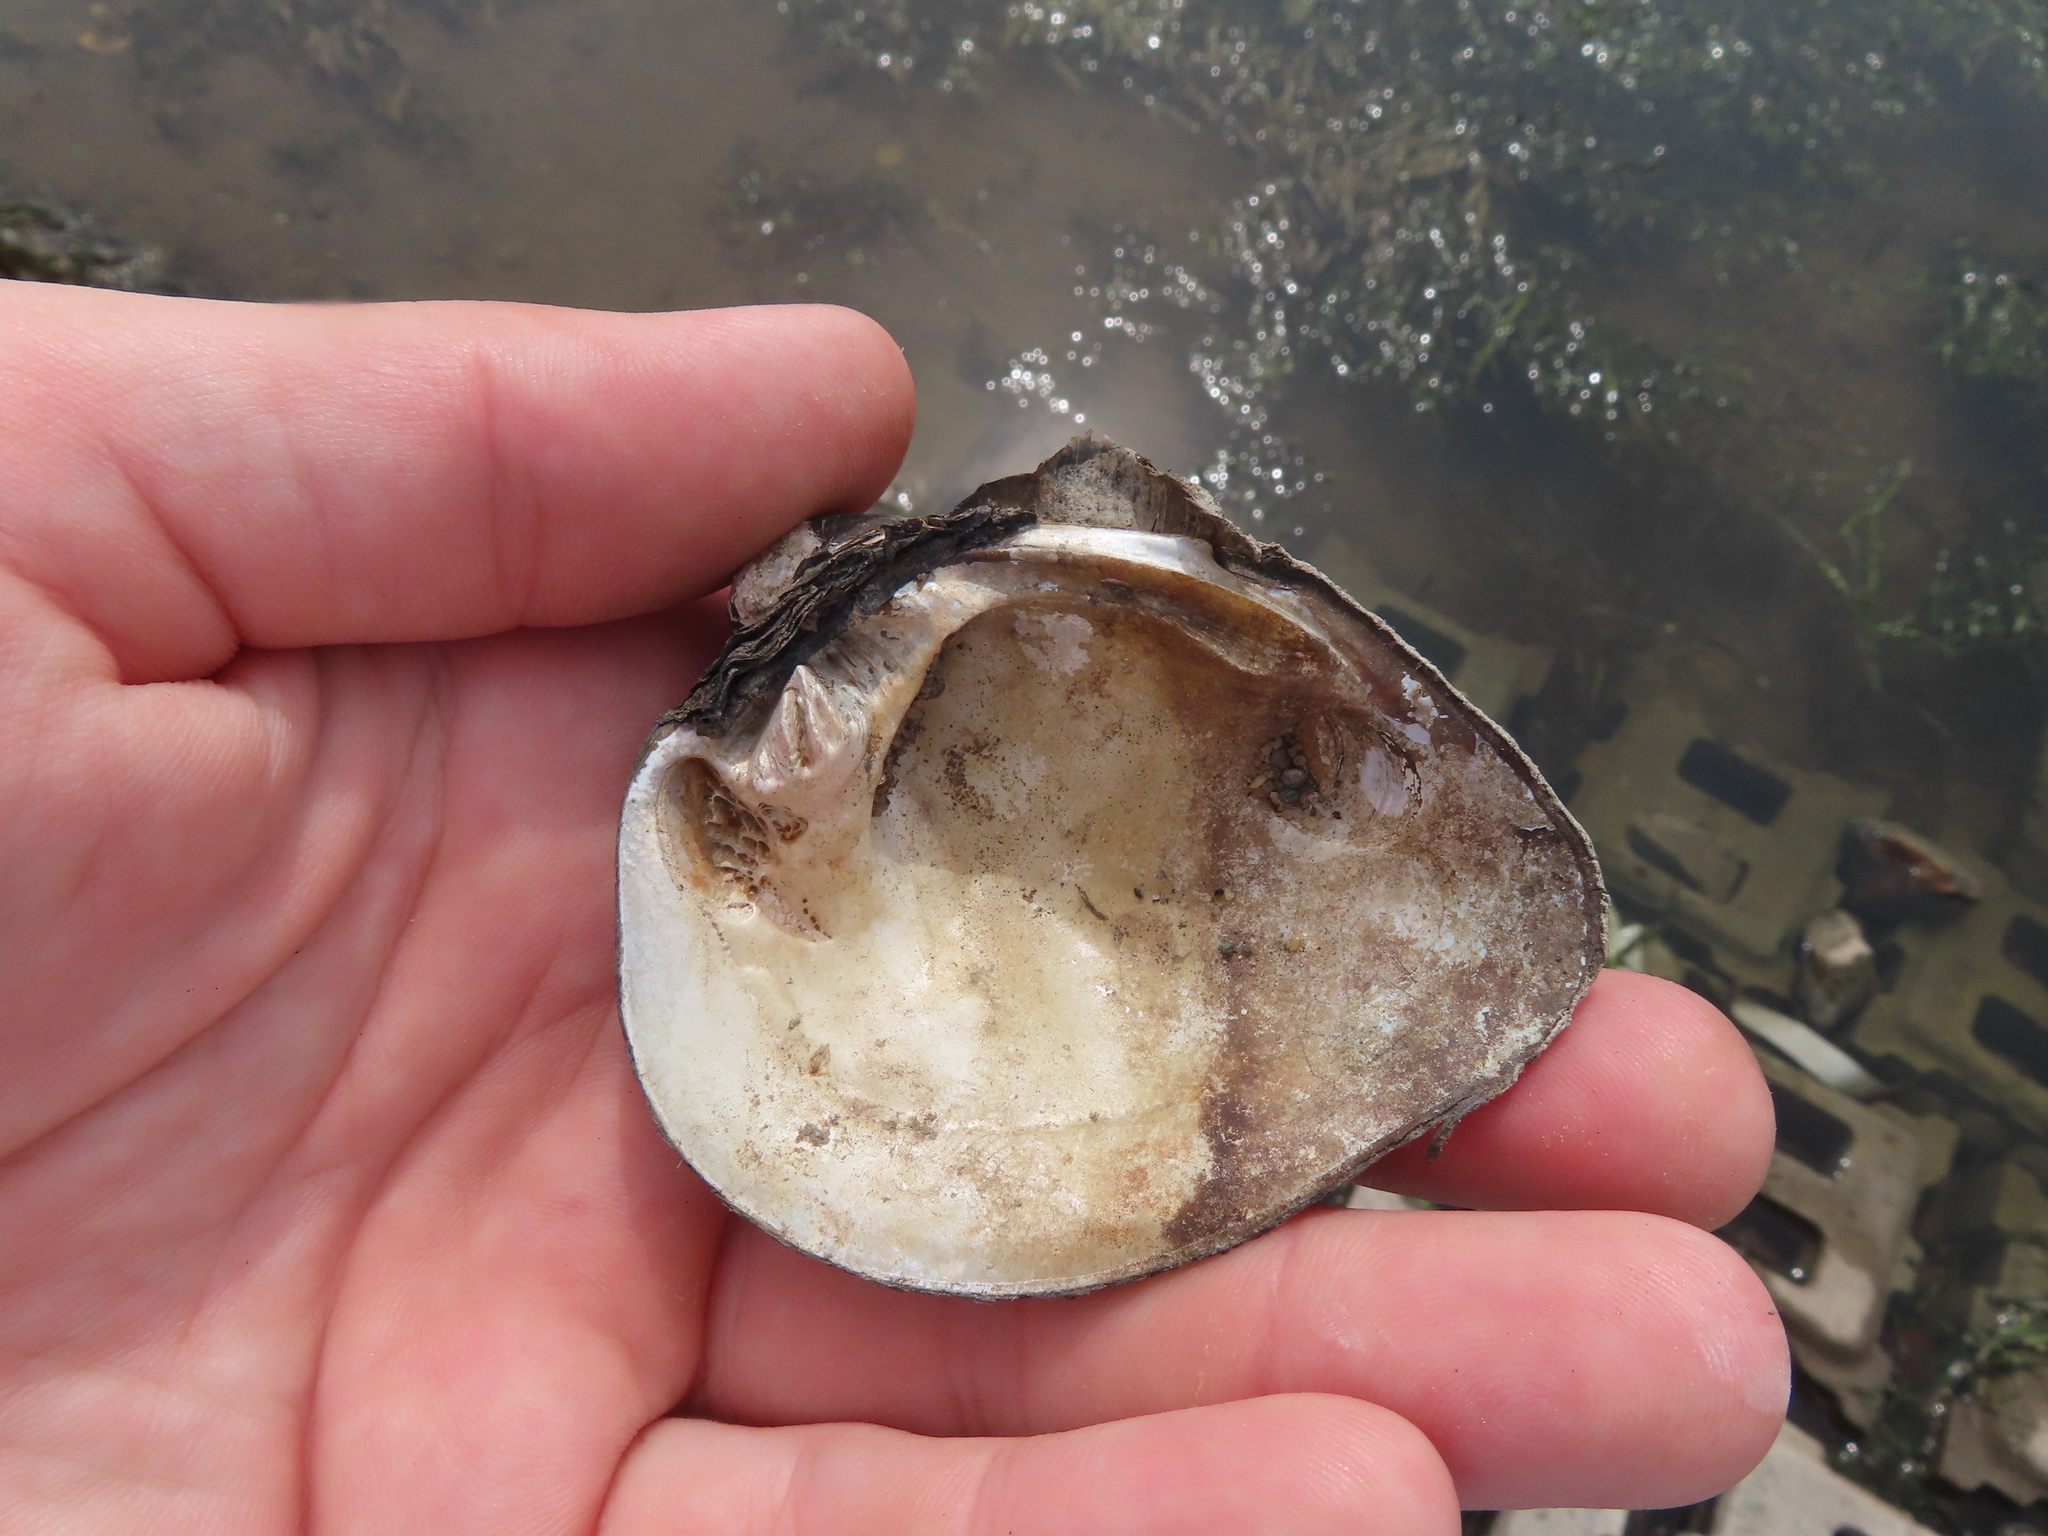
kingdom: Animalia
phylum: Mollusca
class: Bivalvia
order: Unionida
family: Unionidae
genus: Fusconaia
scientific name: Fusconaia flava
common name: Wabash pigtoe
